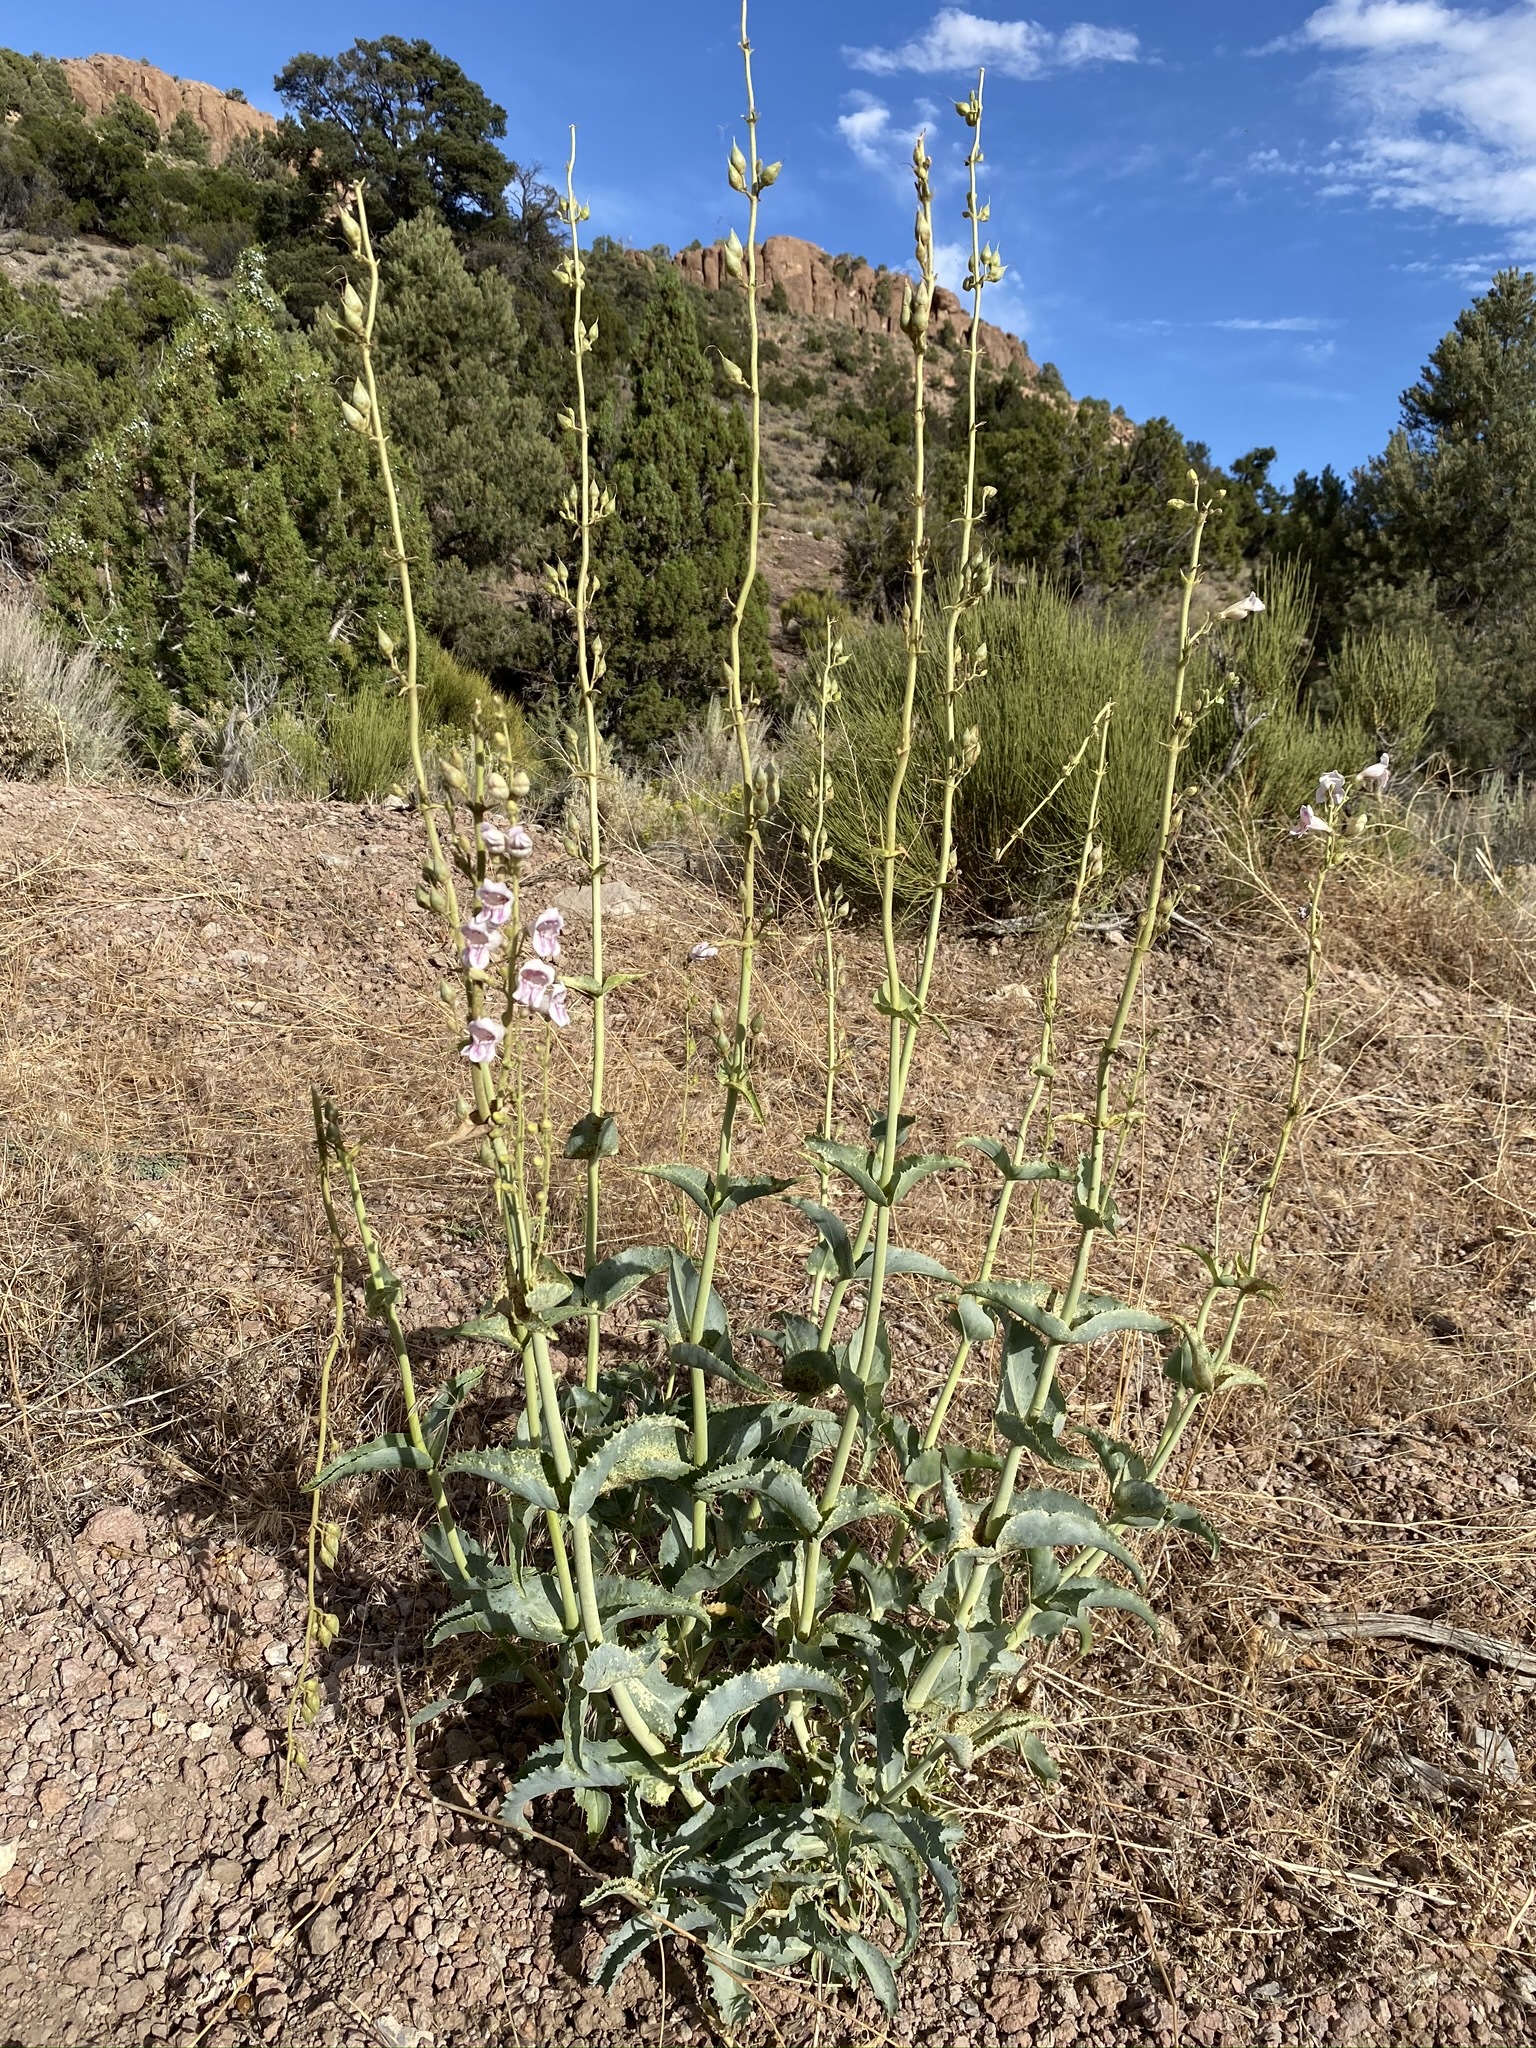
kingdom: Plantae
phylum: Tracheophyta
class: Magnoliopsida
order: Lamiales
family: Plantaginaceae
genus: Penstemon
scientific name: Penstemon palmeri
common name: Palmer penstemon
